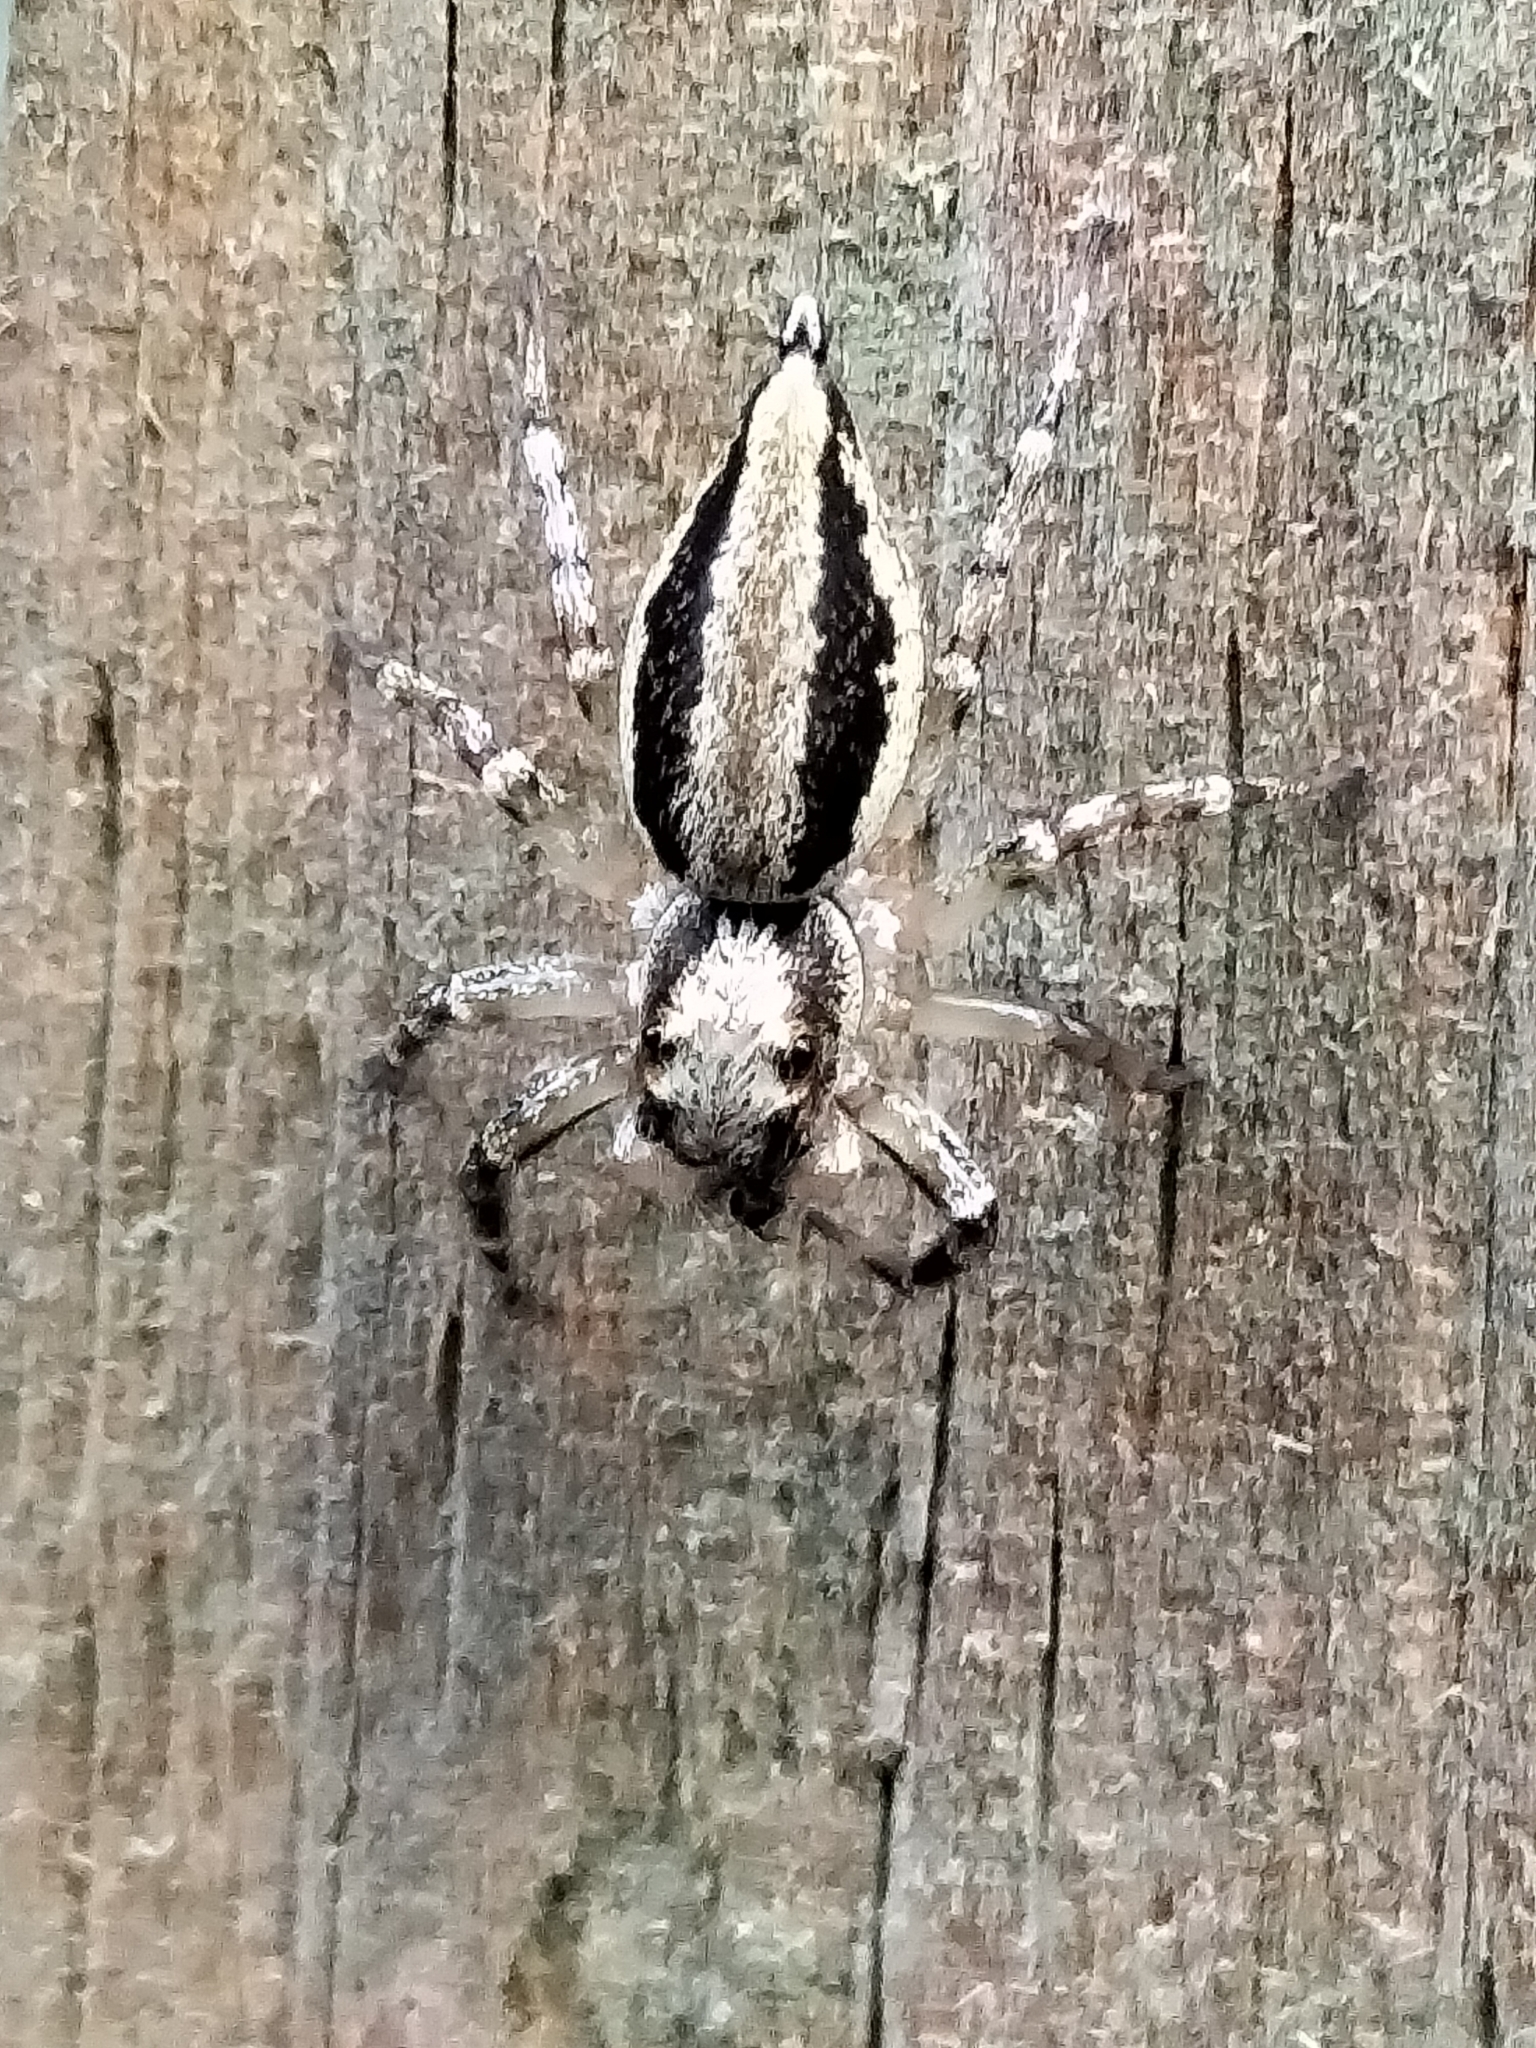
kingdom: Animalia
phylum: Arthropoda
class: Arachnida
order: Araneae
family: Salticidae
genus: Zenodorus
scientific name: Zenodorus swiftorum
